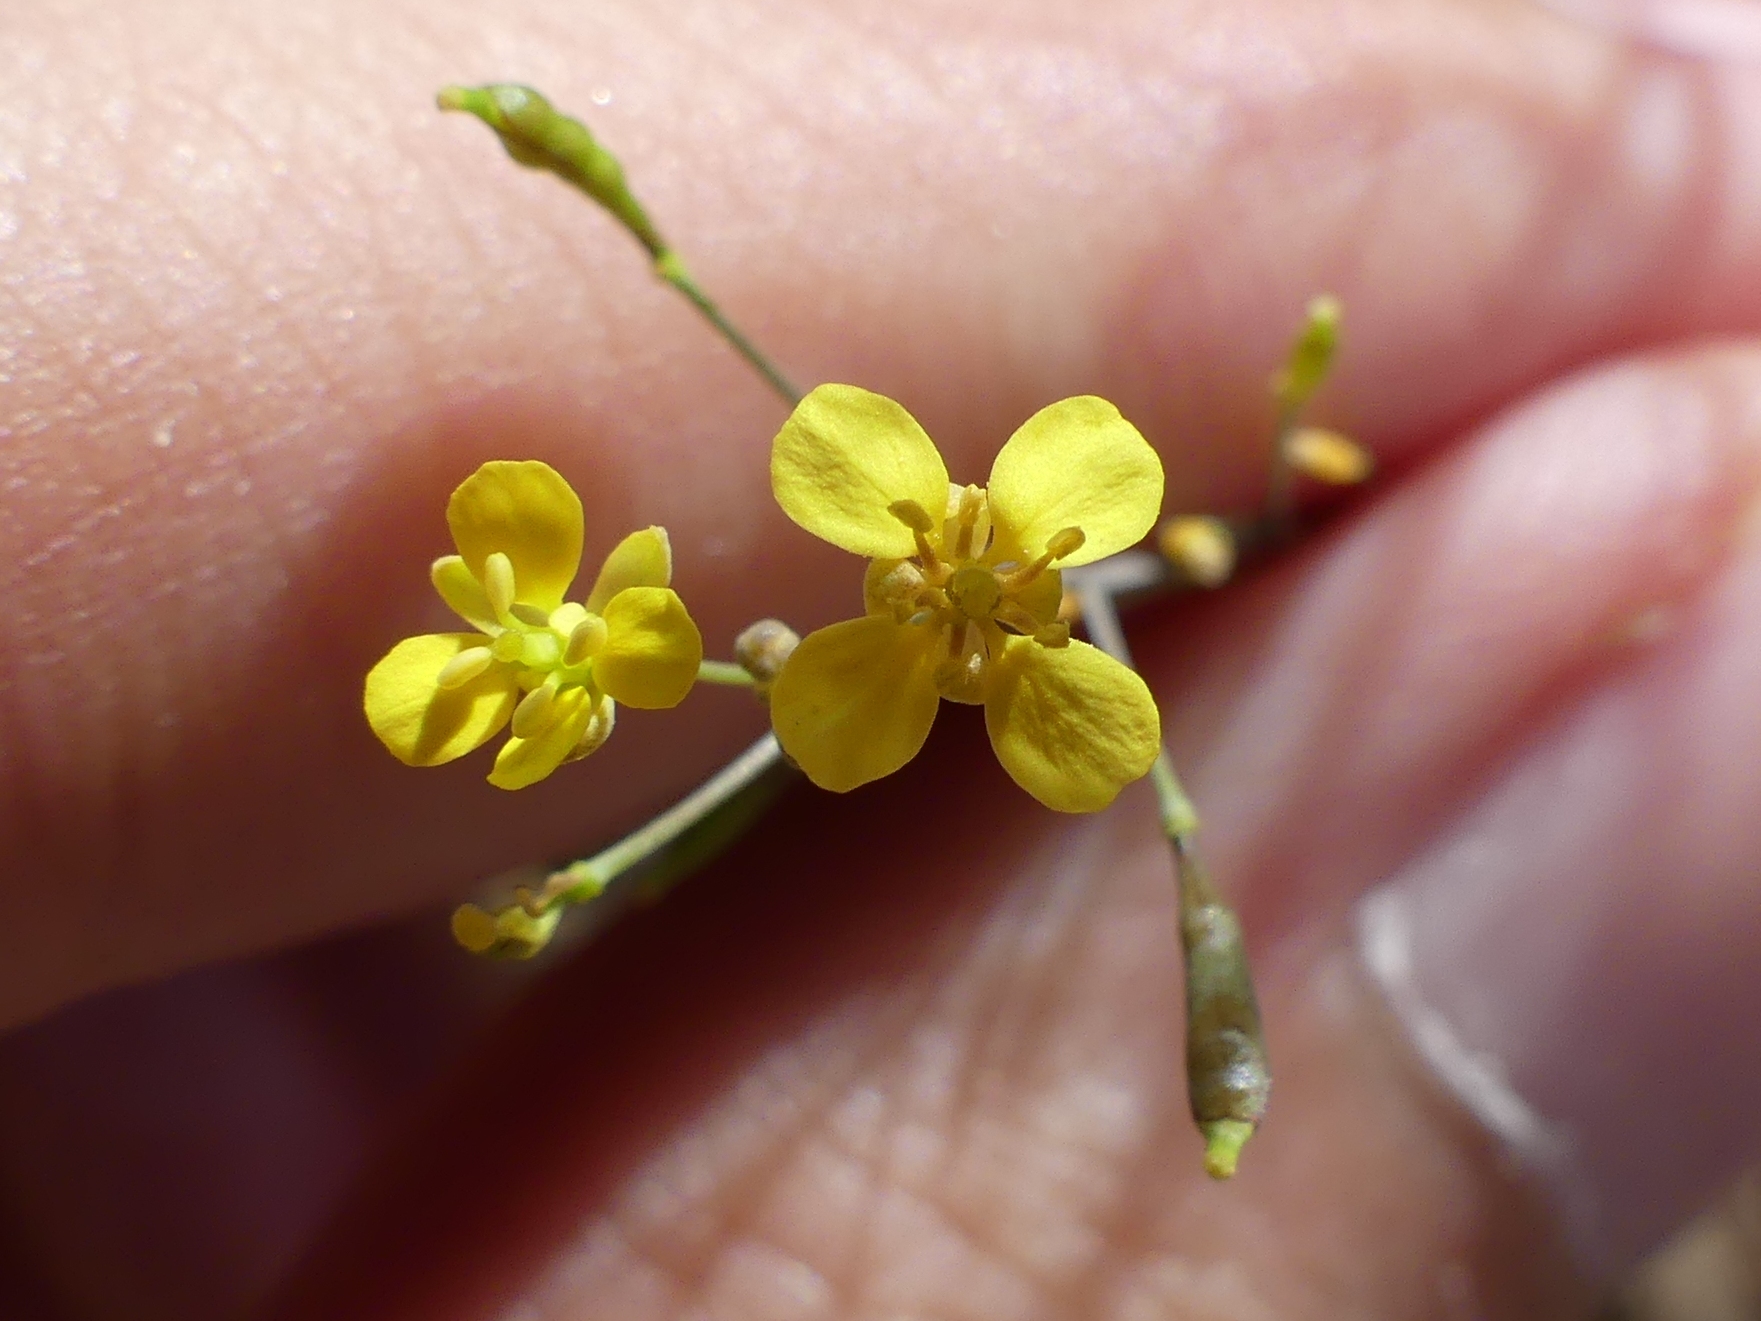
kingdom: Plantae
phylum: Tracheophyta
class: Magnoliopsida
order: Brassicales
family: Brassicaceae
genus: Brassica
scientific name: Brassica souliei
